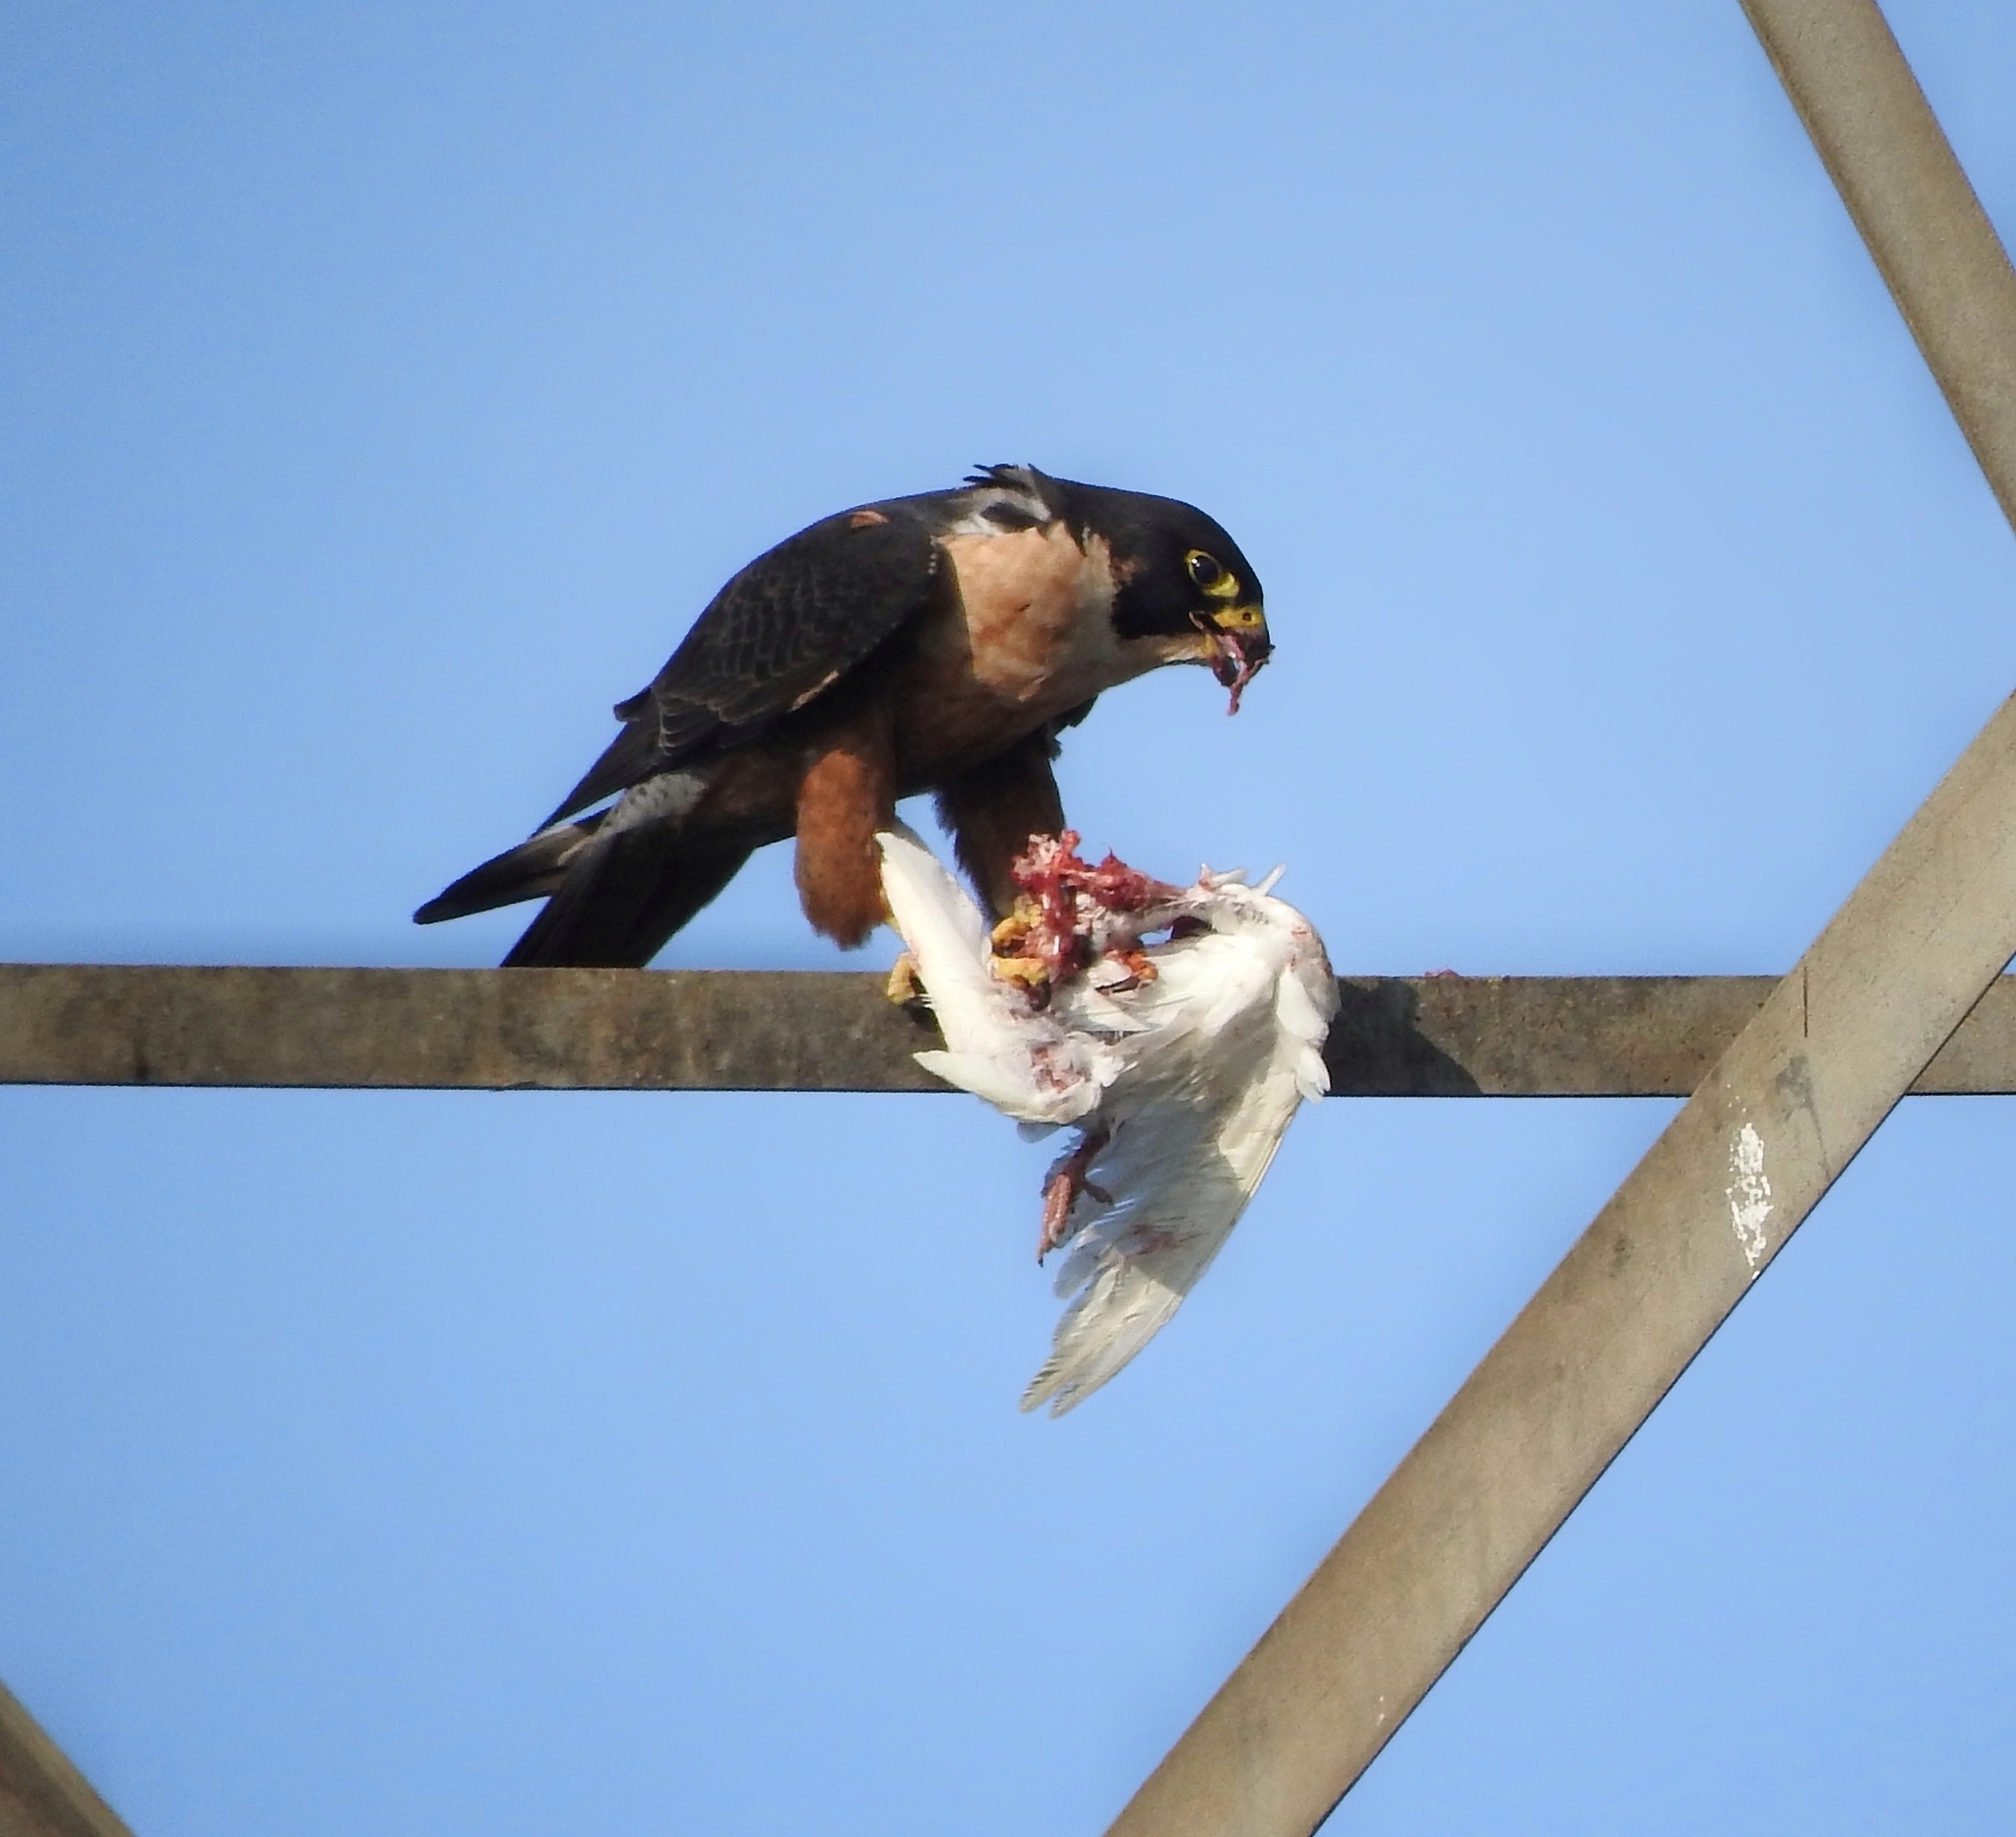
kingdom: Animalia
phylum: Chordata
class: Aves
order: Falconiformes
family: Falconidae
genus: Falco
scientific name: Falco peregrinus
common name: Peregrine falcon
